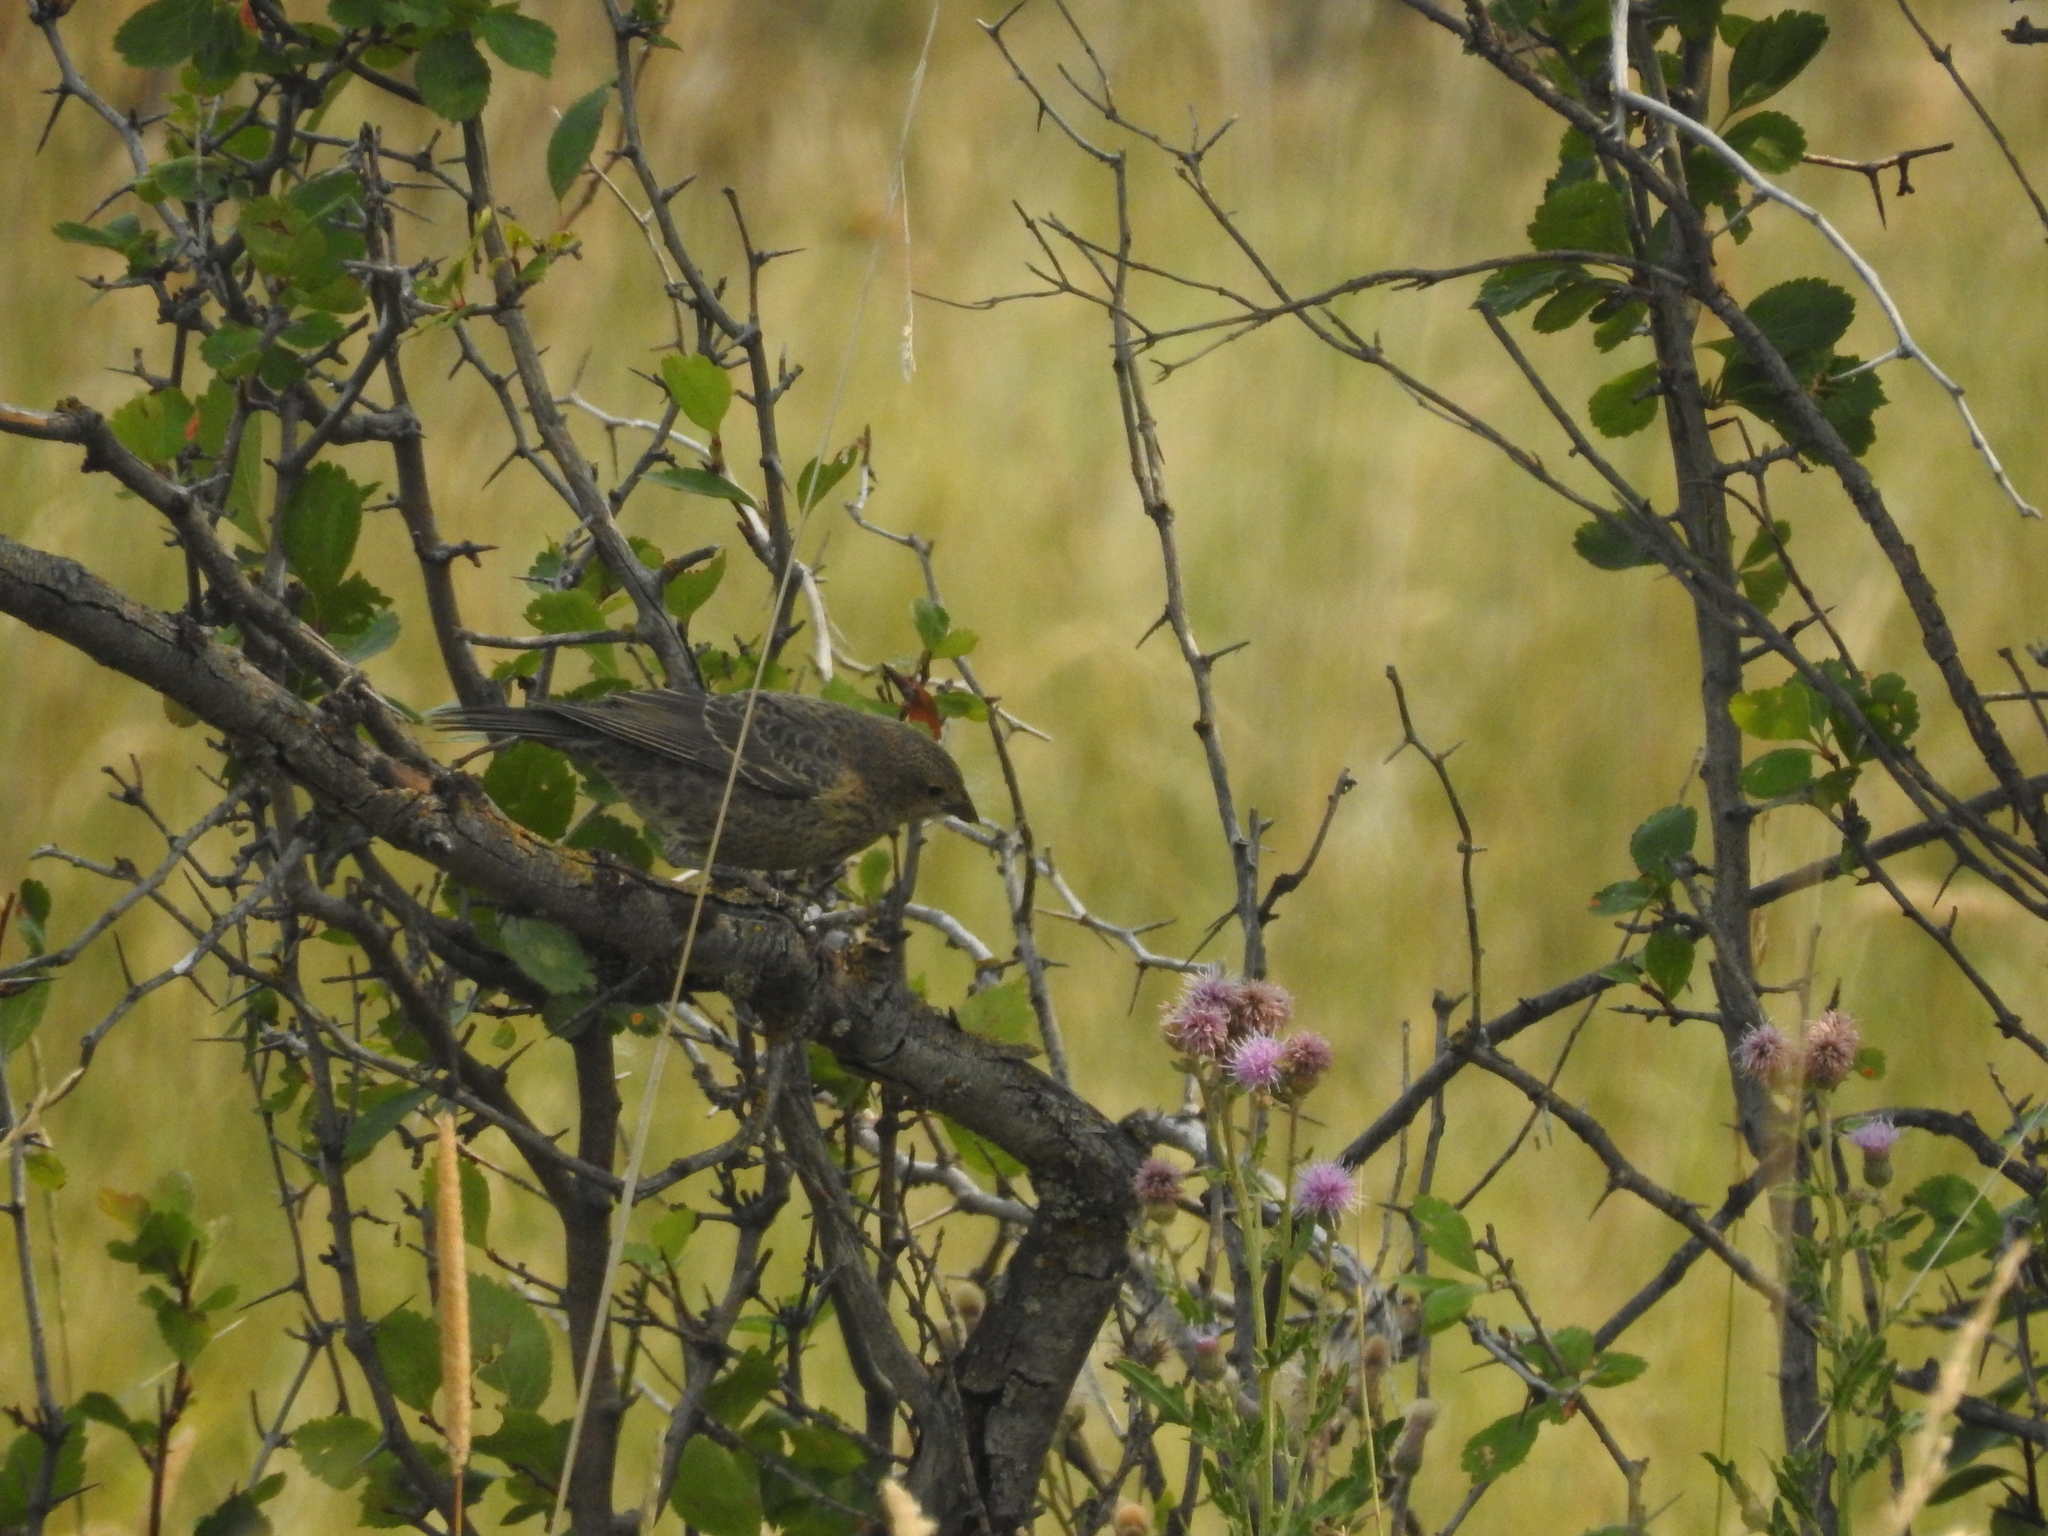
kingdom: Animalia
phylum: Chordata
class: Aves
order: Passeriformes
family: Icteridae
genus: Molothrus
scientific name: Molothrus ater
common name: Brown-headed cowbird
